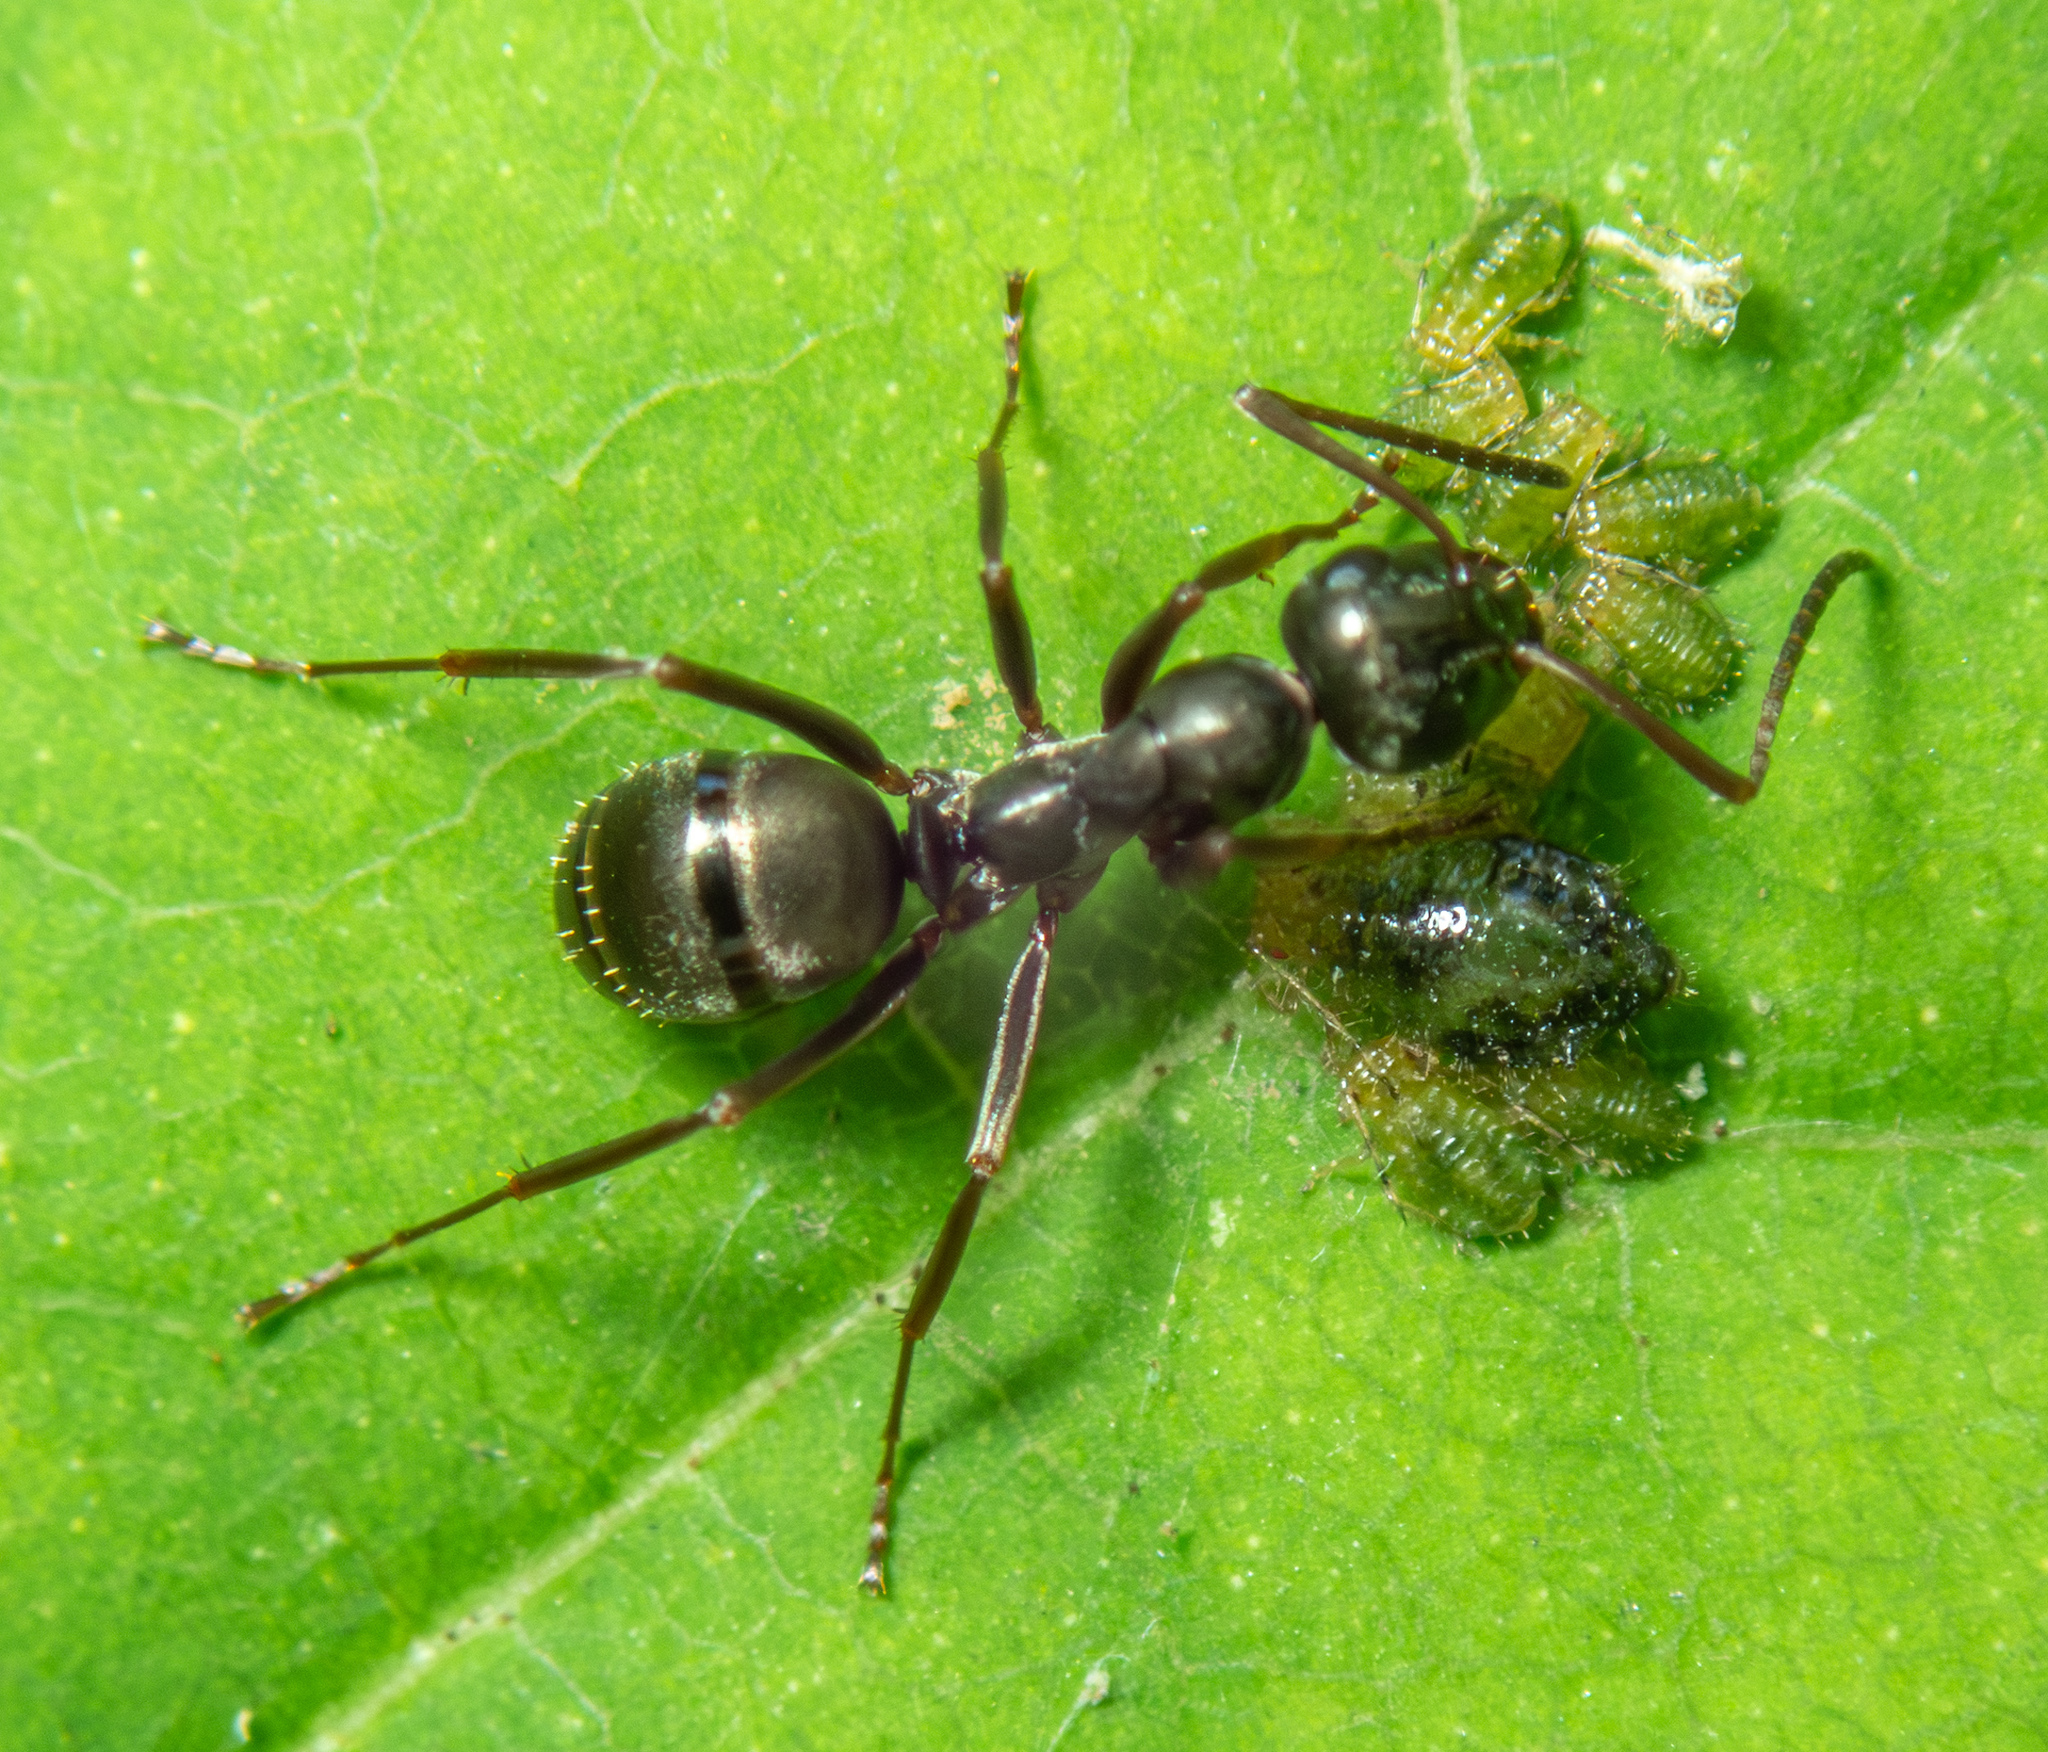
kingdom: Animalia
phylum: Arthropoda
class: Insecta
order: Hymenoptera
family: Formicidae
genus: Formica
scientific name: Formica fusca
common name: Silky ant
